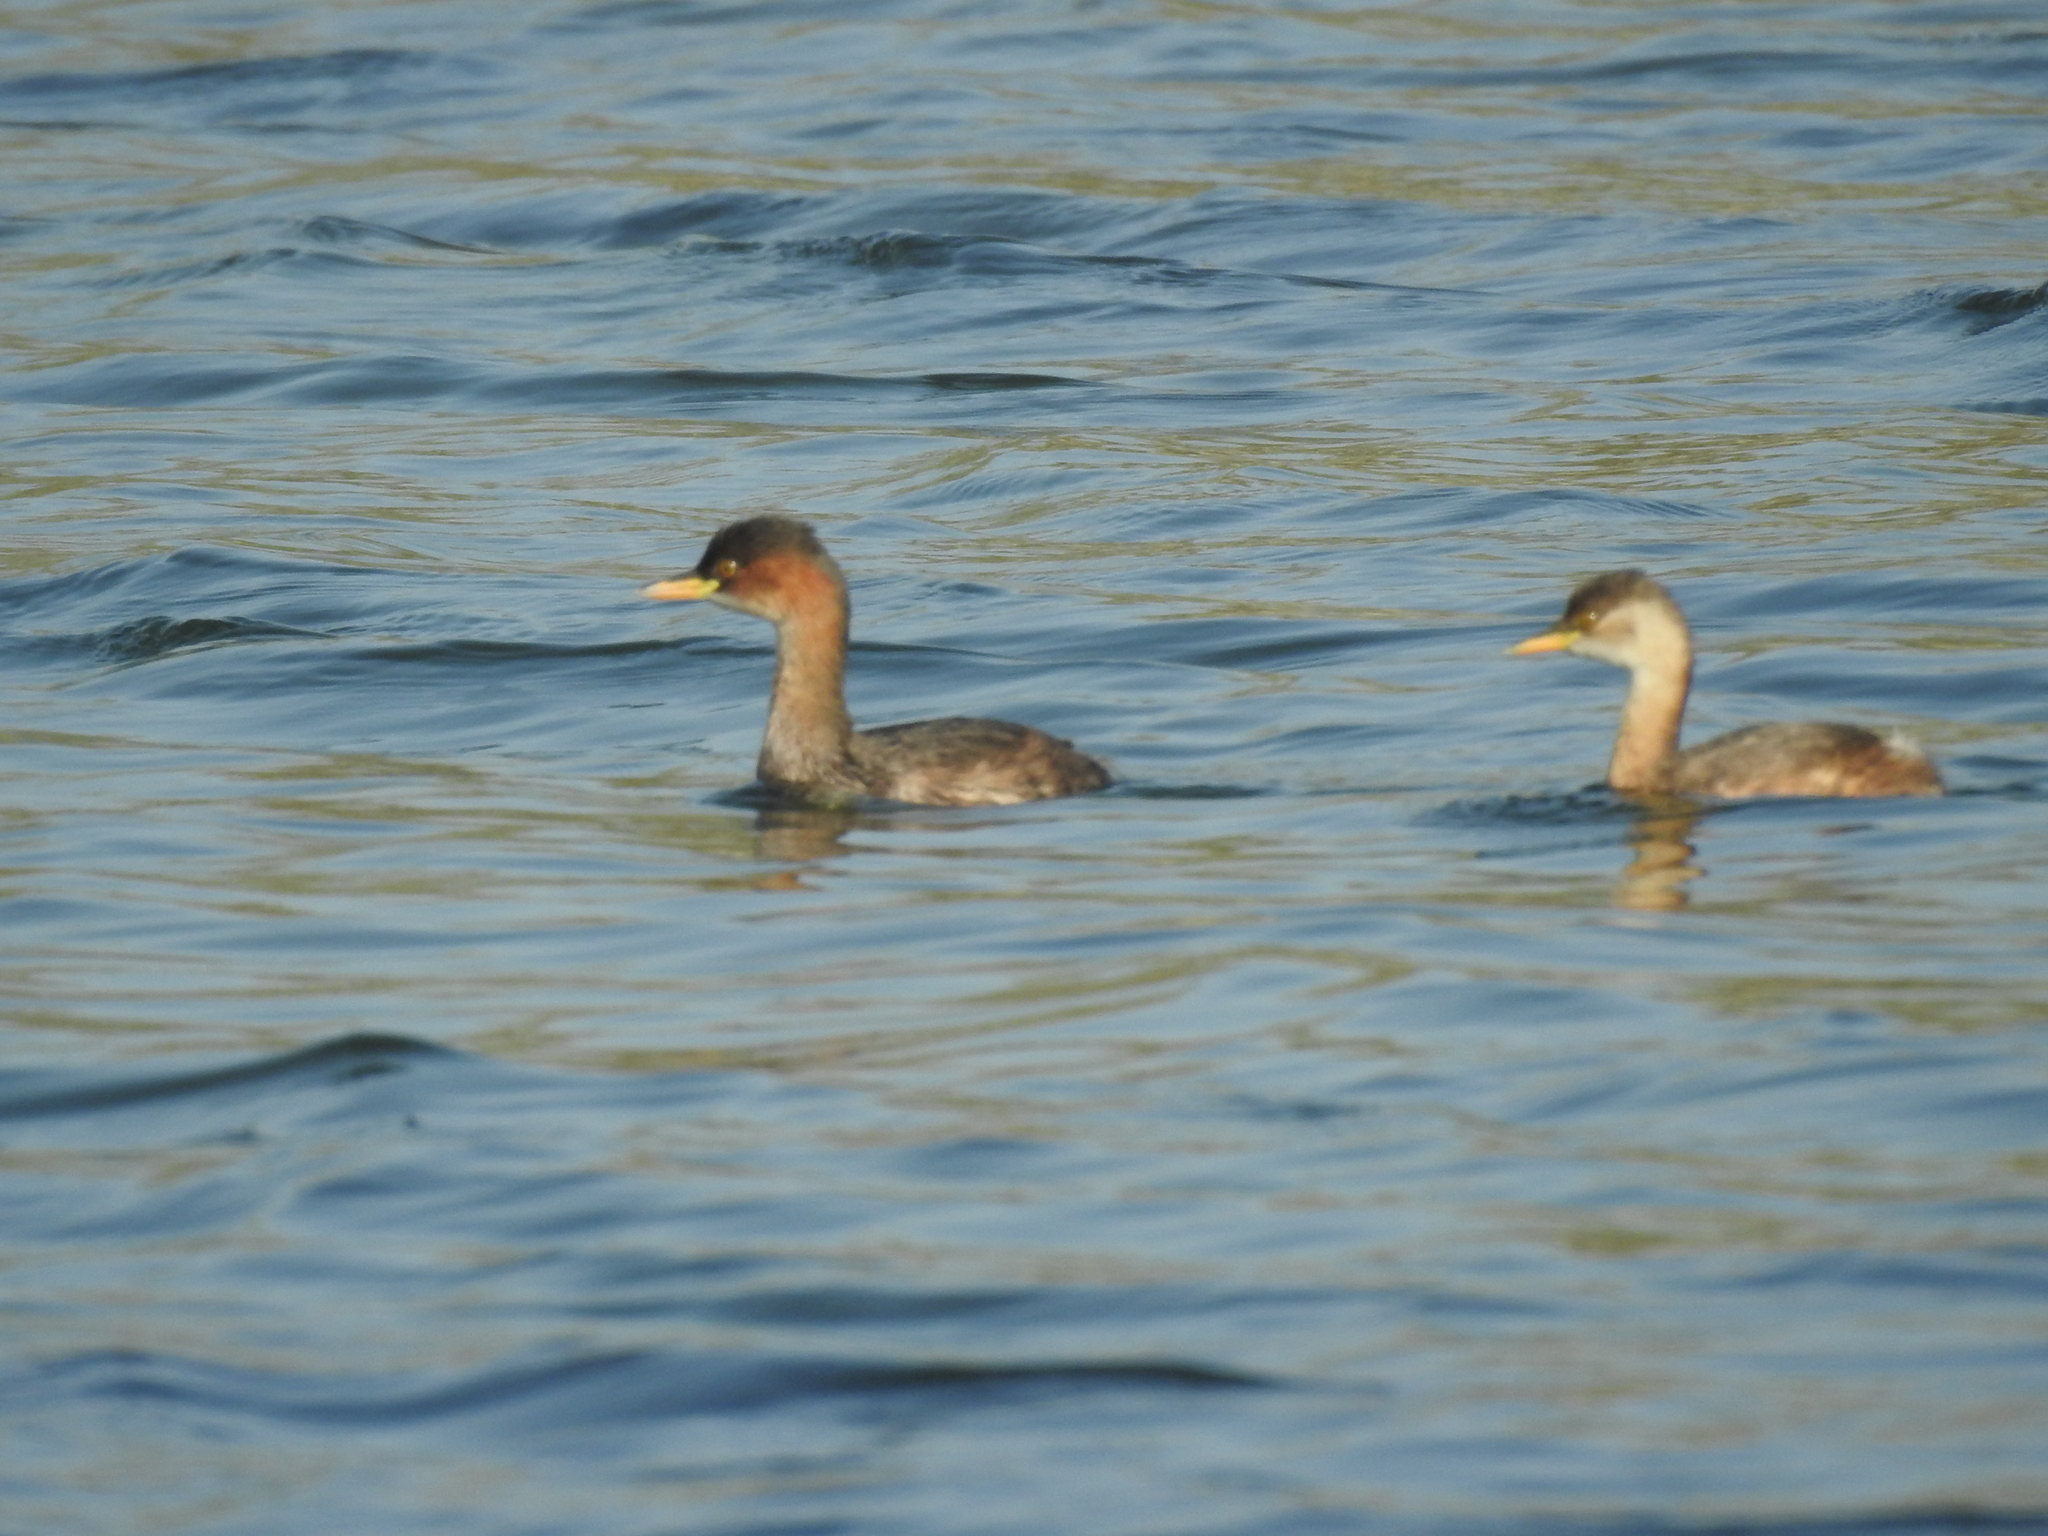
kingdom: Animalia
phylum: Chordata
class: Aves
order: Podicipediformes
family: Podicipedidae
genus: Tachybaptus
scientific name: Tachybaptus ruficollis
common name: Little grebe
